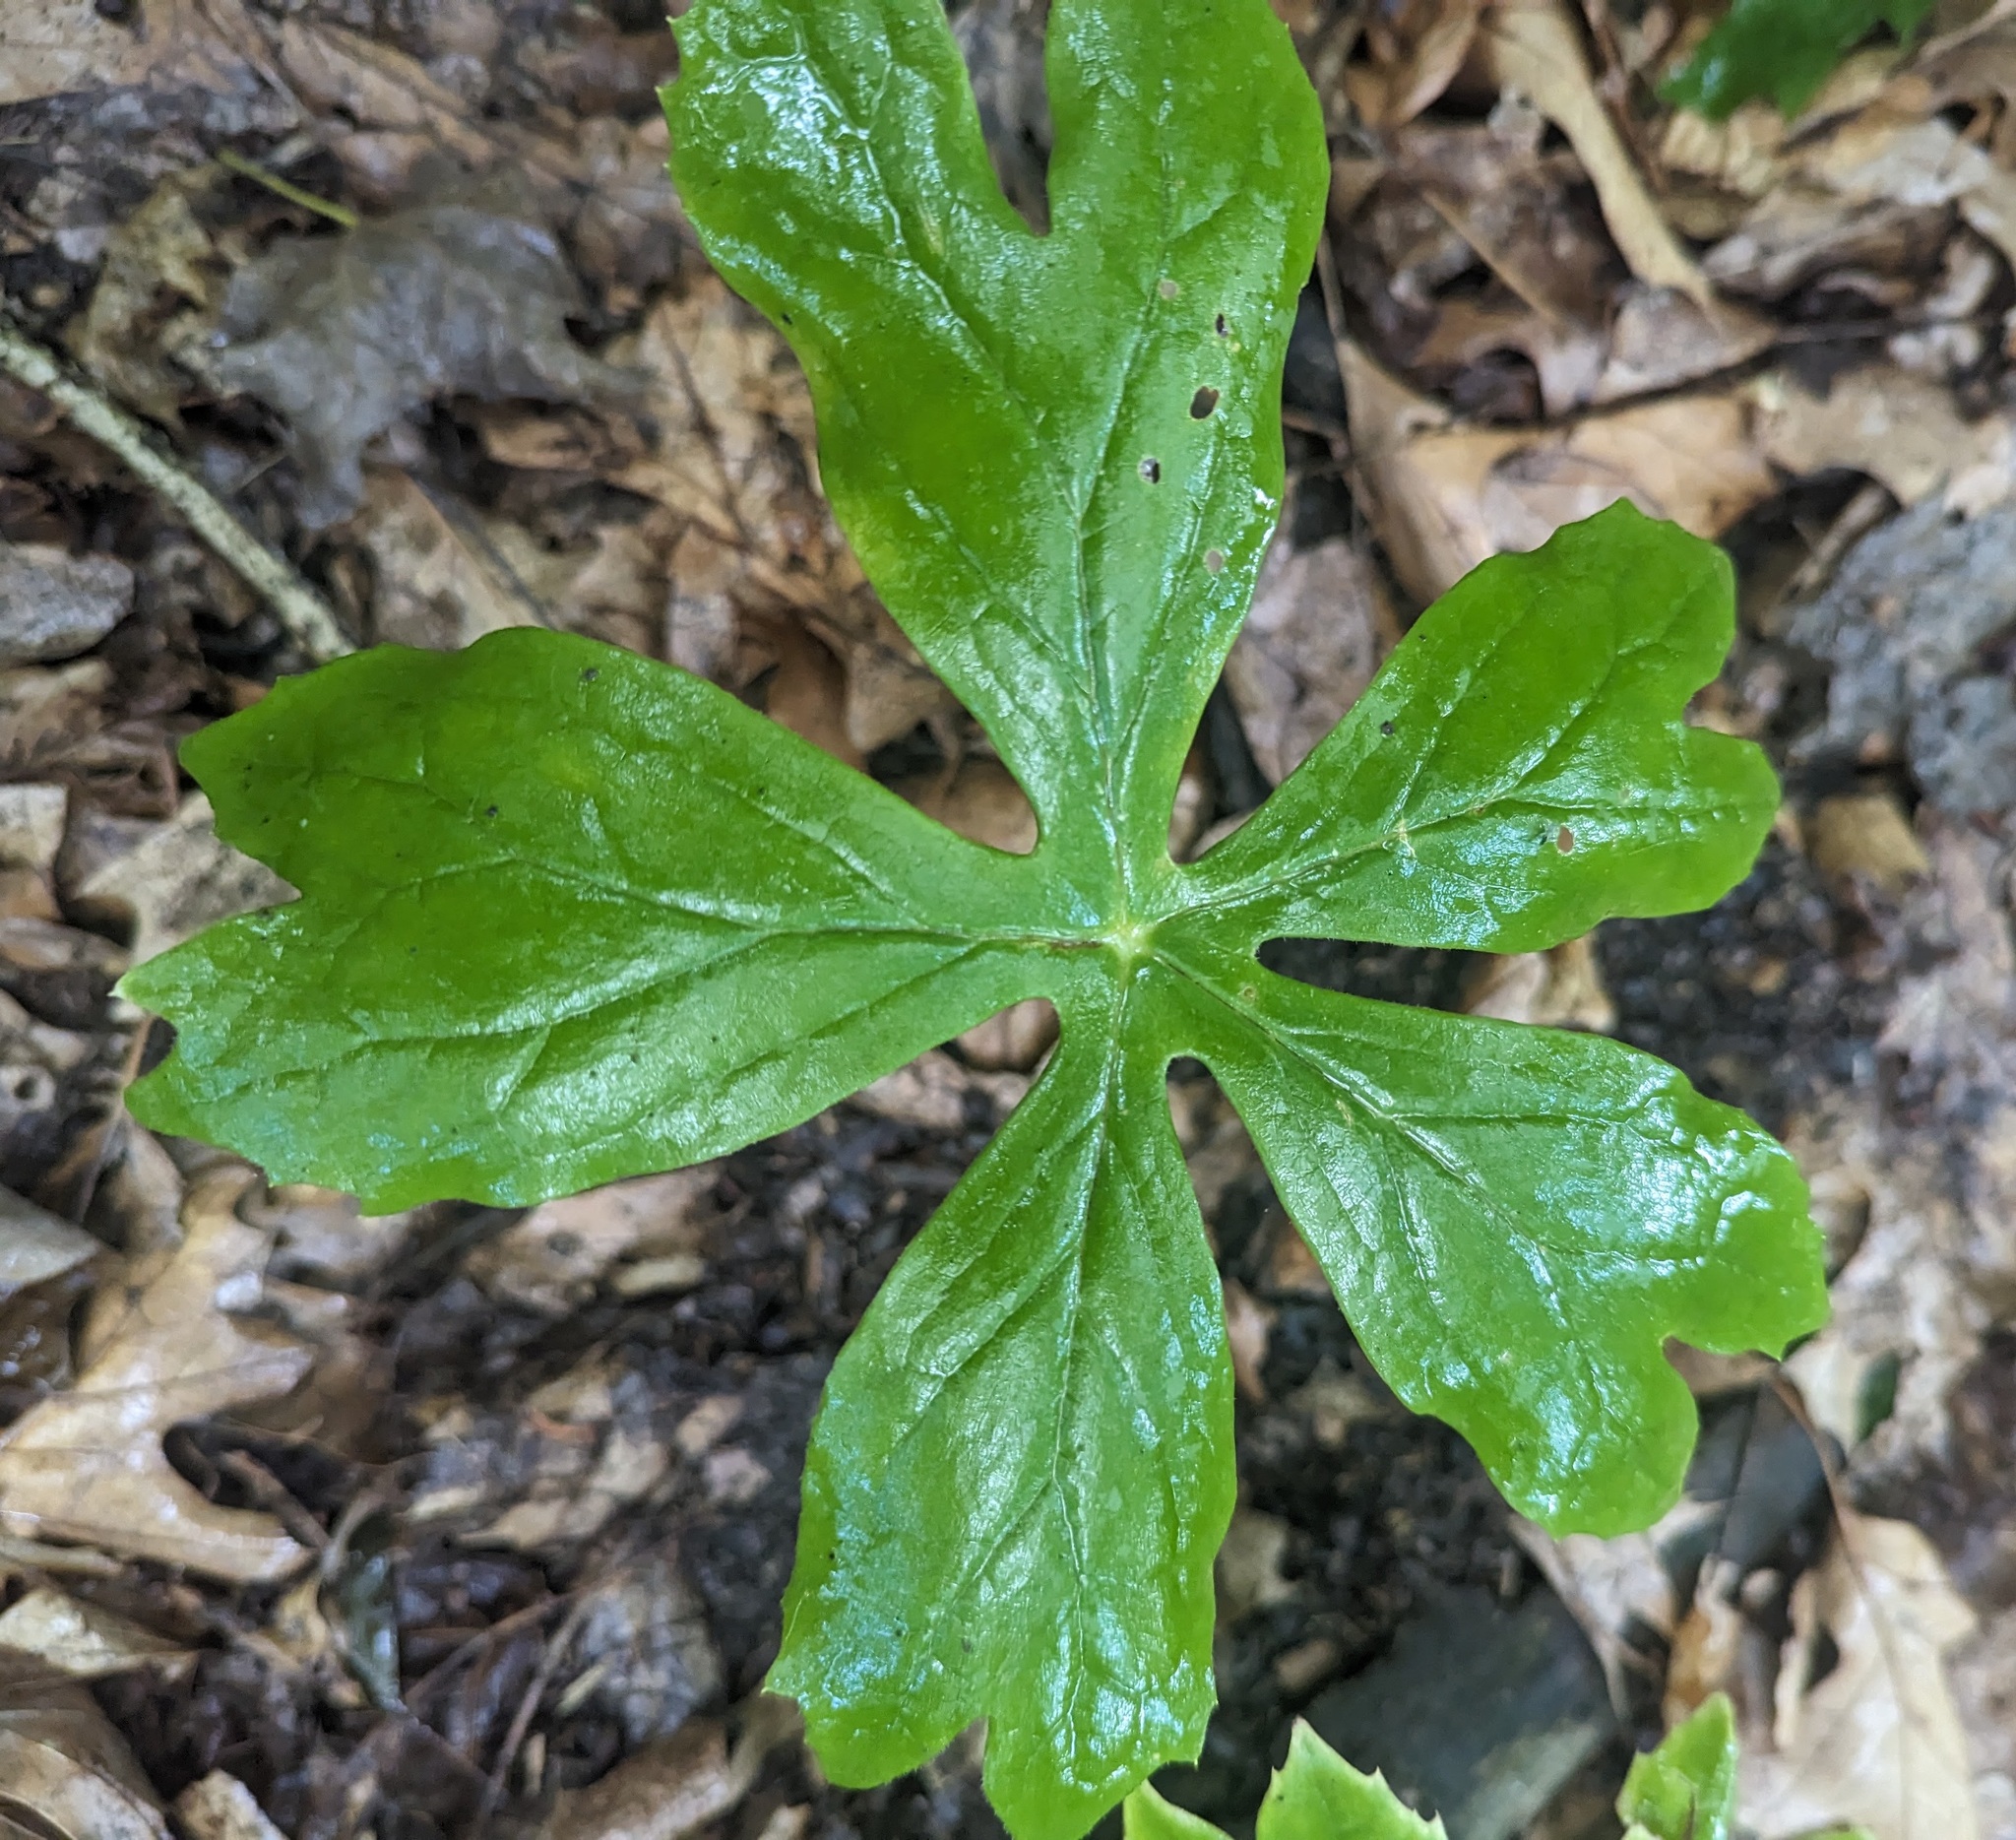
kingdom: Plantae
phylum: Tracheophyta
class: Magnoliopsida
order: Ranunculales
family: Berberidaceae
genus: Podophyllum
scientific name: Podophyllum peltatum
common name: Wild mandrake
